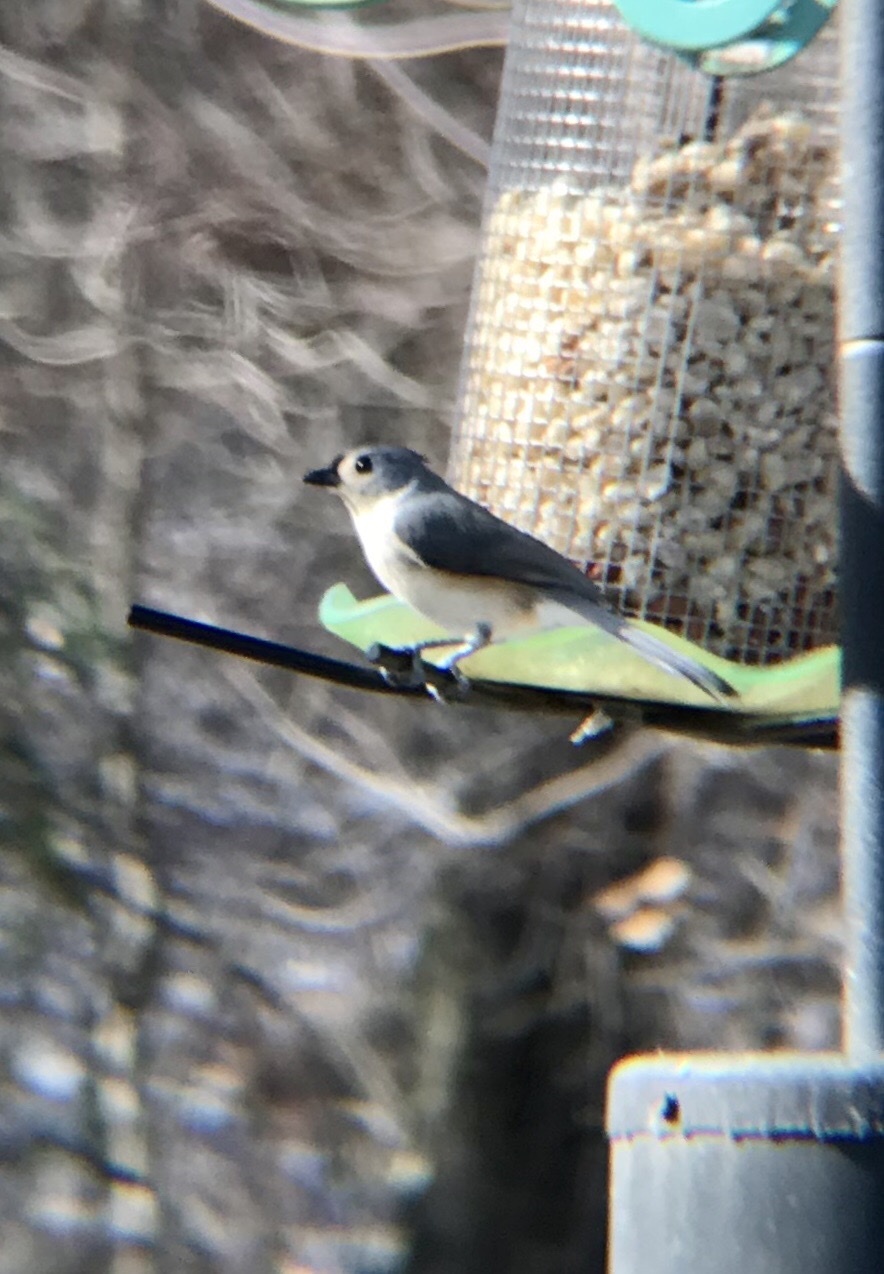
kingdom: Animalia
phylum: Chordata
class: Aves
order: Passeriformes
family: Paridae
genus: Baeolophus
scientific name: Baeolophus bicolor
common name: Tufted titmouse
